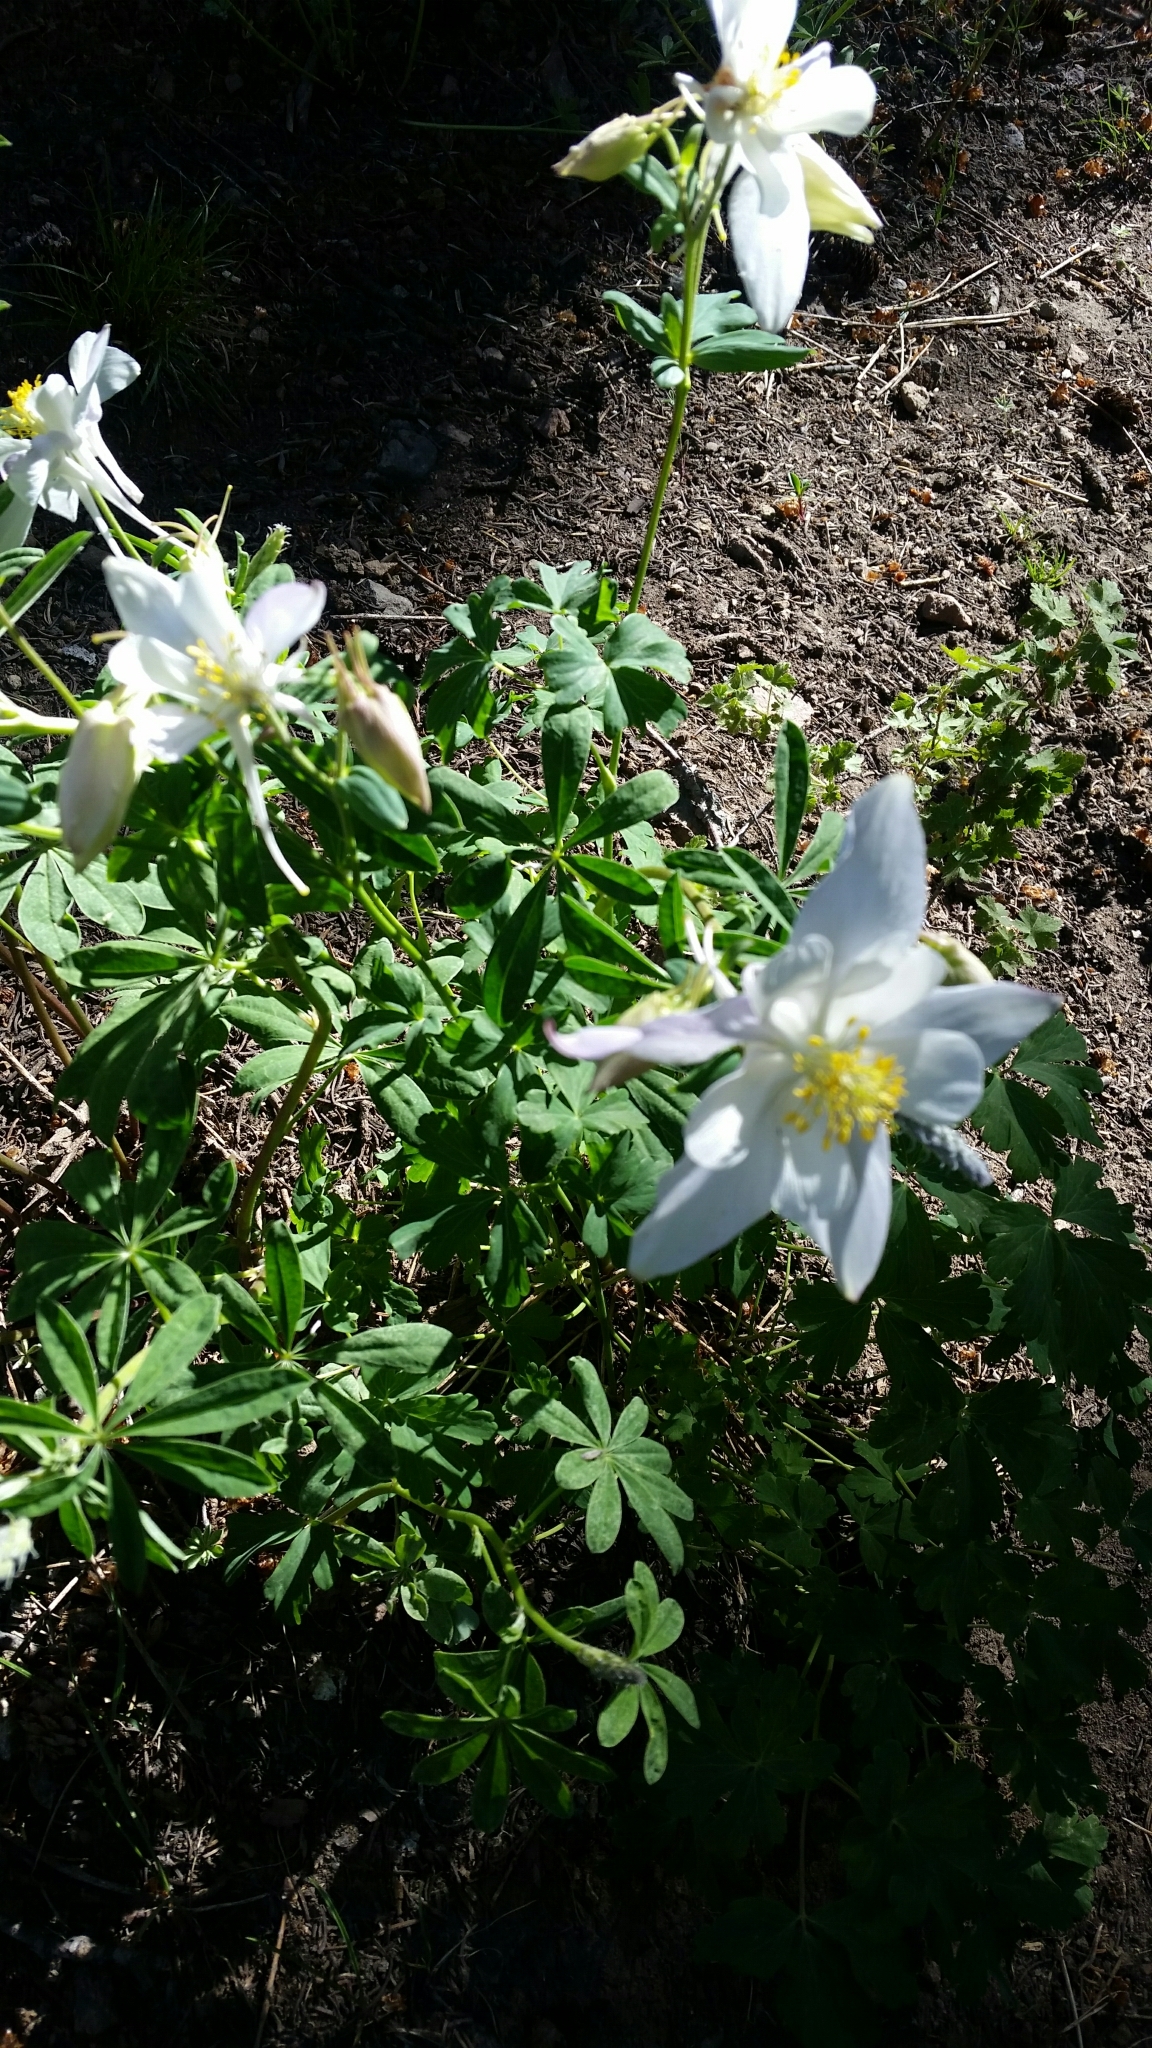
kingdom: Plantae
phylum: Tracheophyta
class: Magnoliopsida
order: Ranunculales
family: Ranunculaceae
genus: Aquilegia
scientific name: Aquilegia coerulea
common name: Rocky mountain columbine
